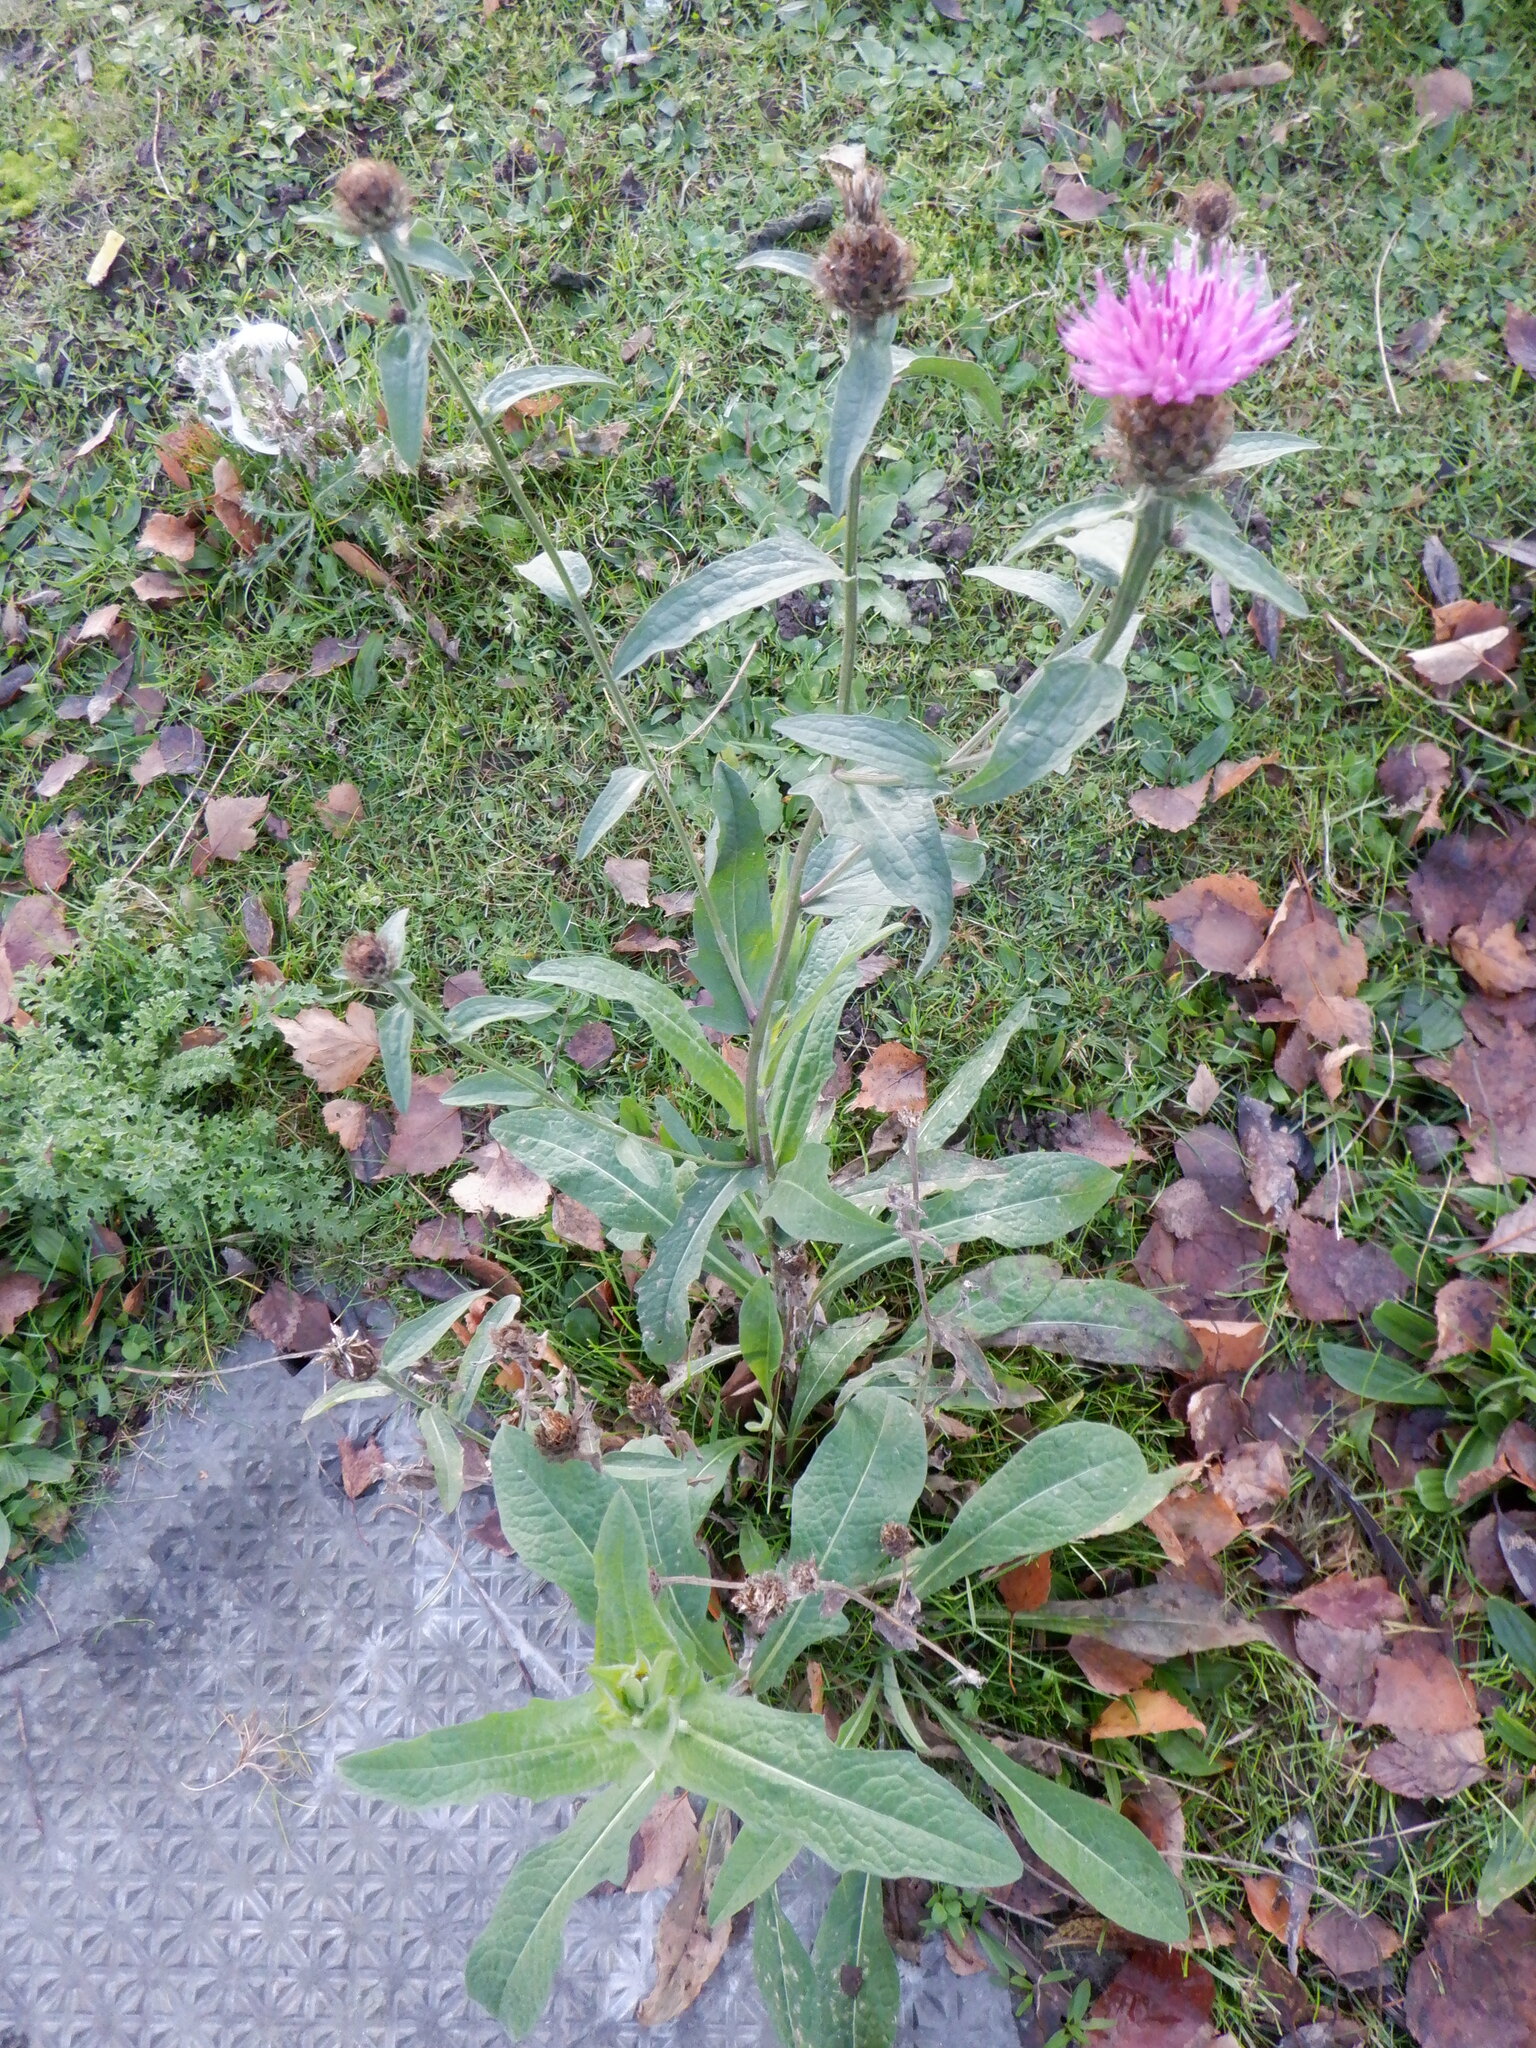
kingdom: Plantae
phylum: Tracheophyta
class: Magnoliopsida
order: Asterales
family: Asteraceae
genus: Centaurea
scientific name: Centaurea nigra
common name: Lesser knapweed
